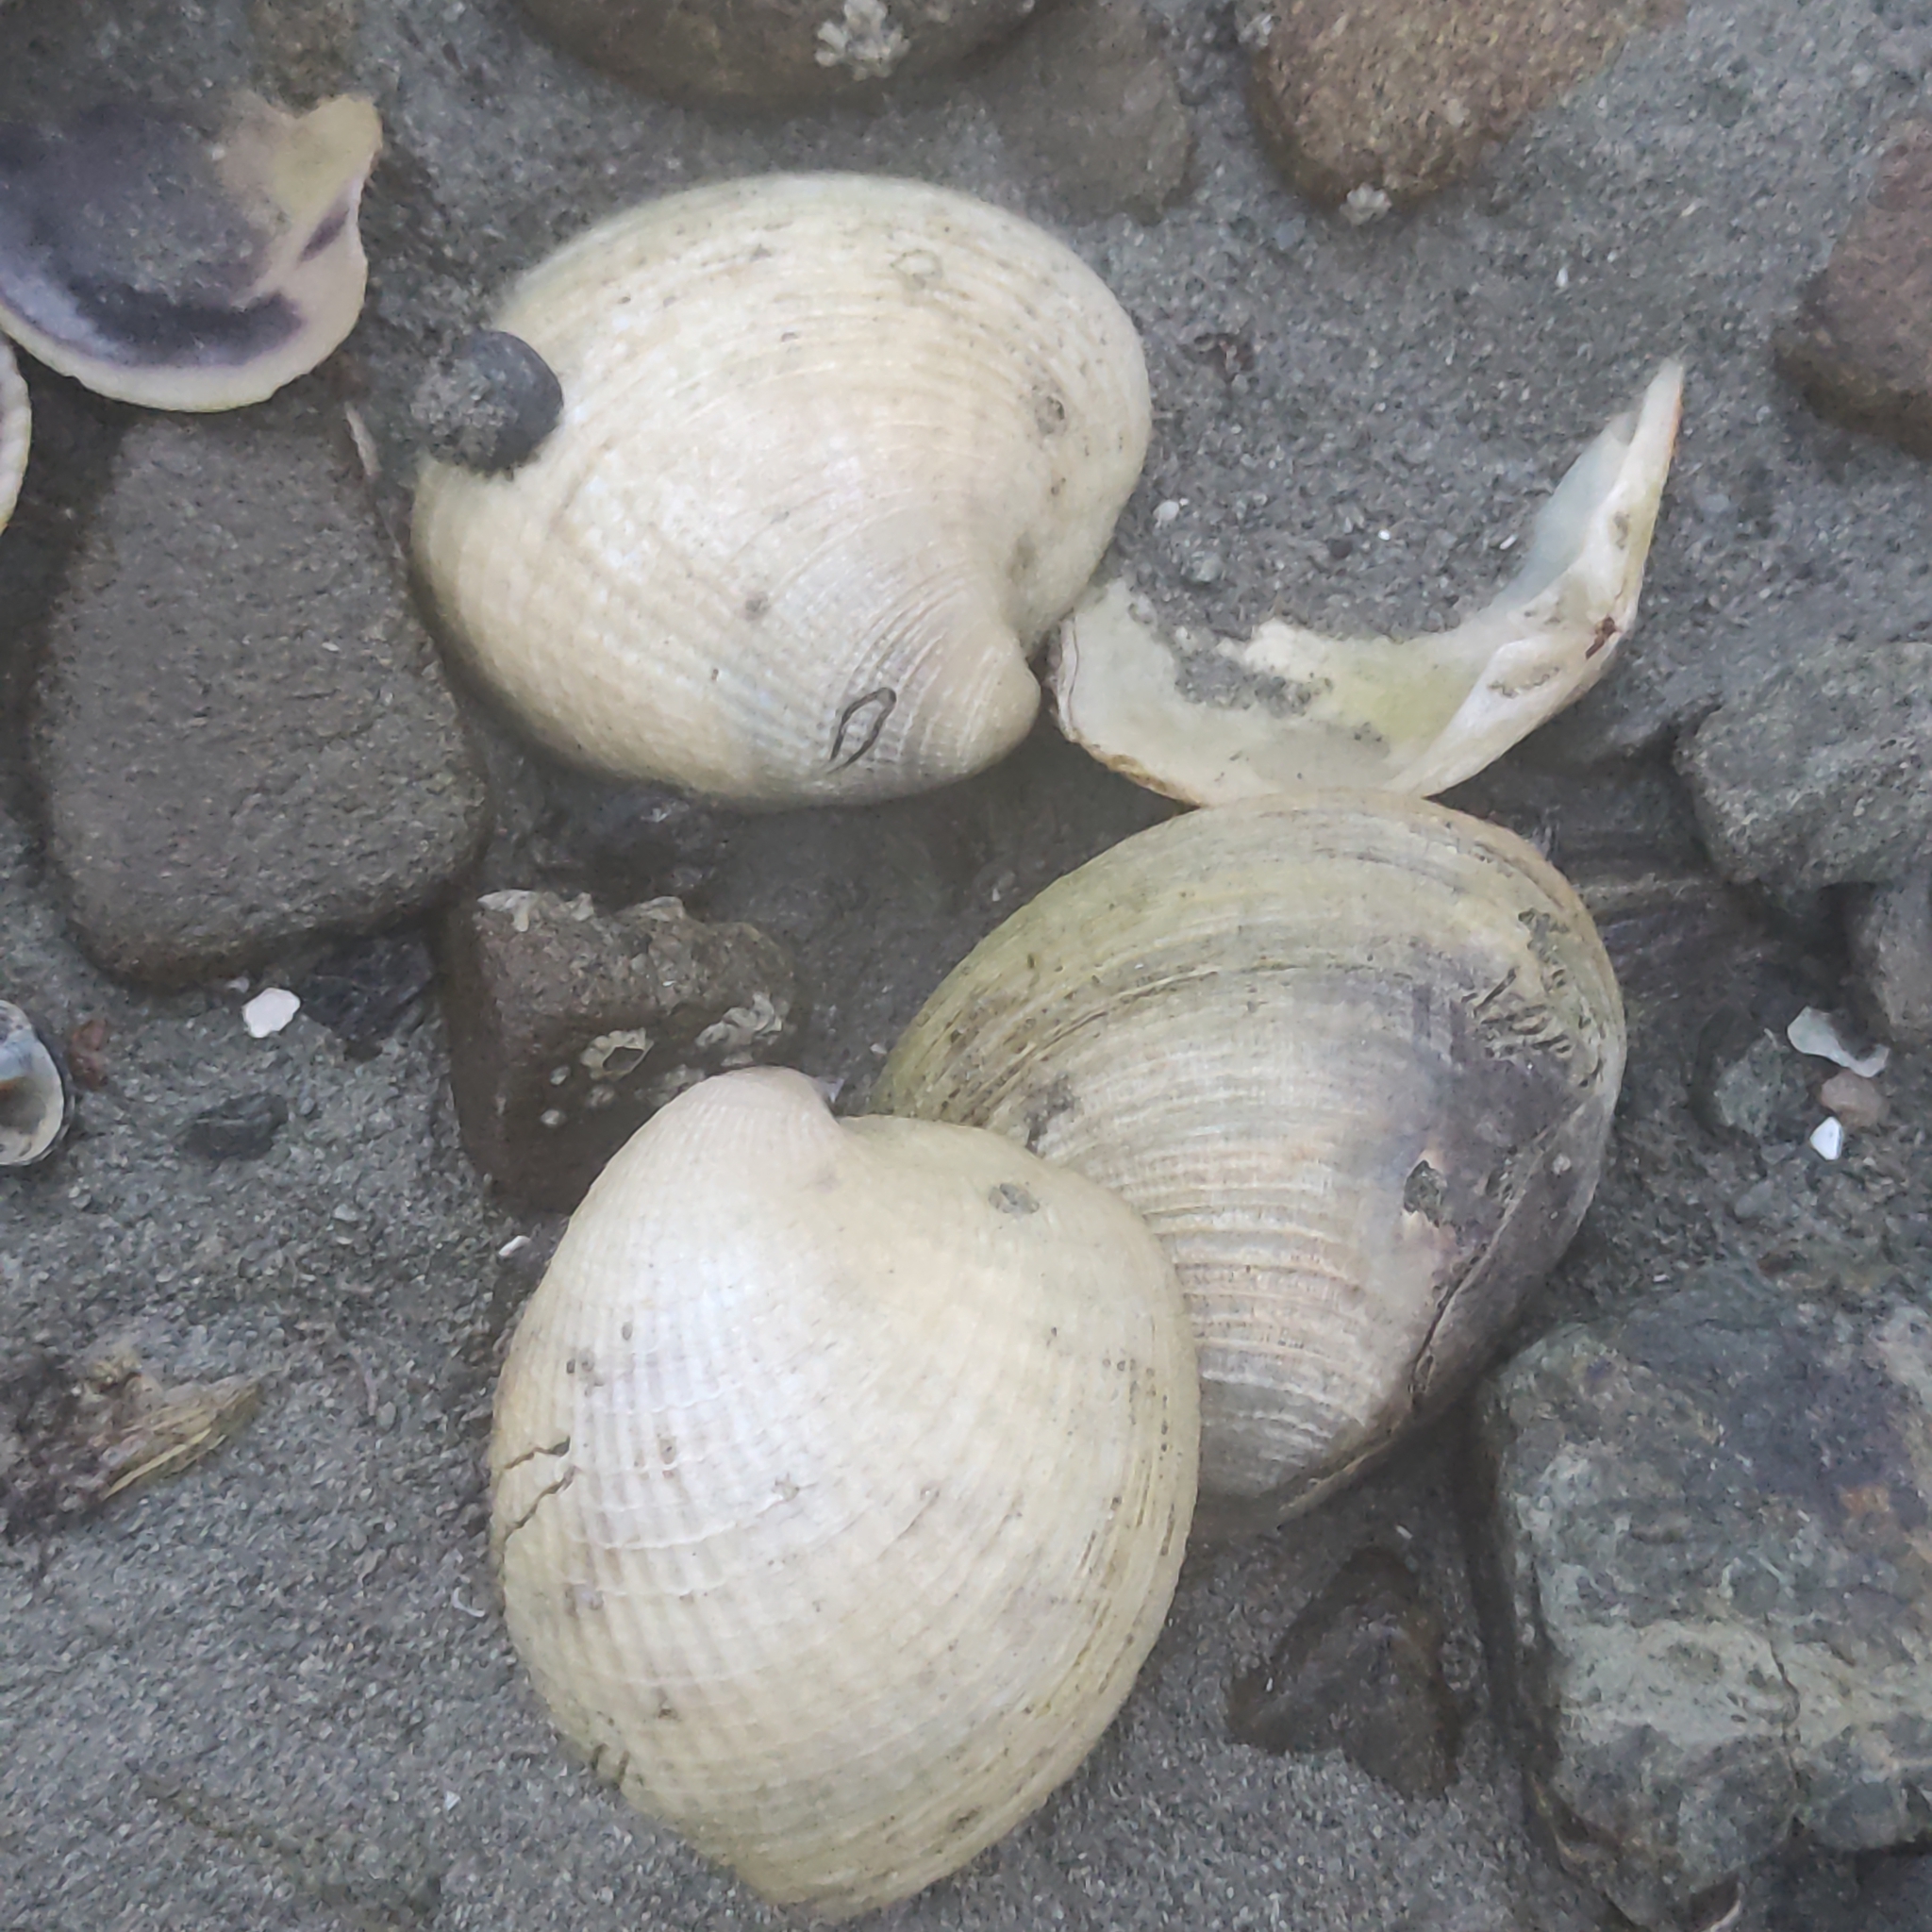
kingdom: Animalia
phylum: Mollusca
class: Bivalvia
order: Venerida
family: Veneridae
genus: Austrovenus
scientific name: Austrovenus stutchburyi
